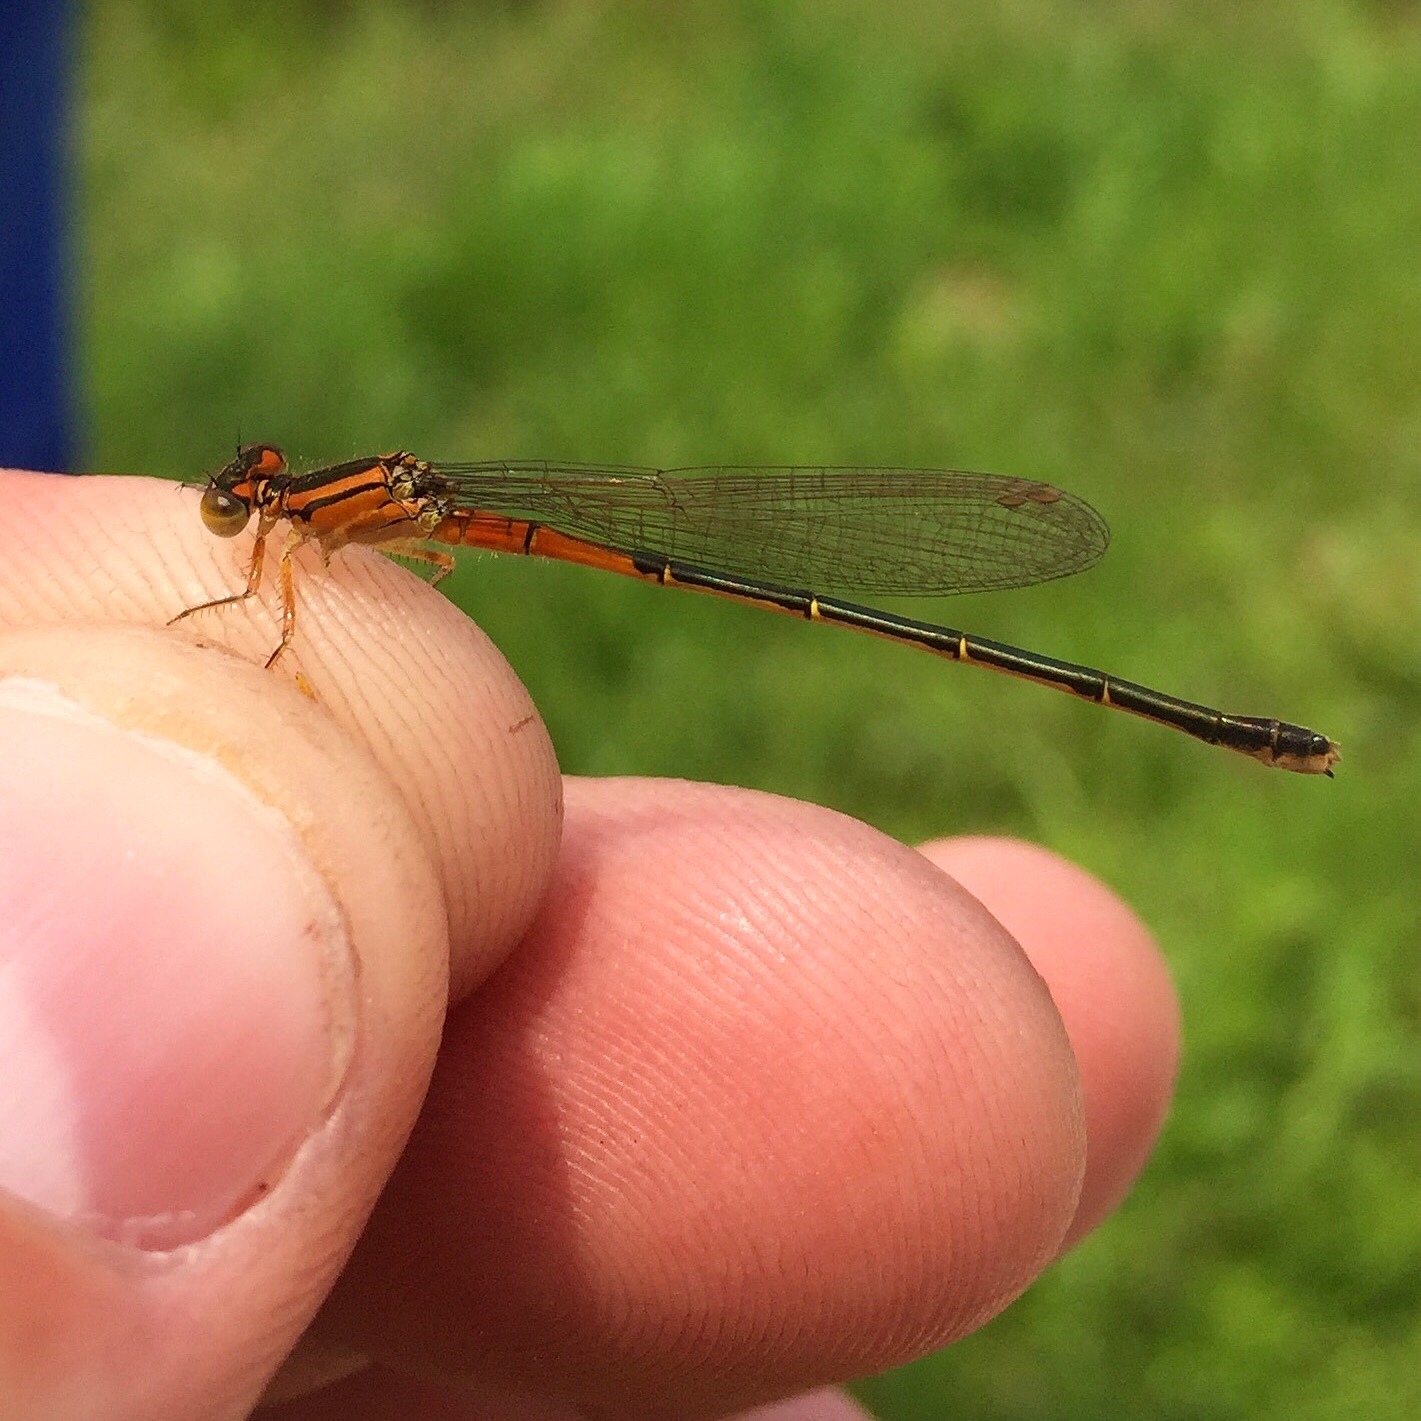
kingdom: Animalia
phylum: Arthropoda
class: Insecta
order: Odonata
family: Coenagrionidae
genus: Ischnura
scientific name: Ischnura verticalis
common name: Eastern forktail
